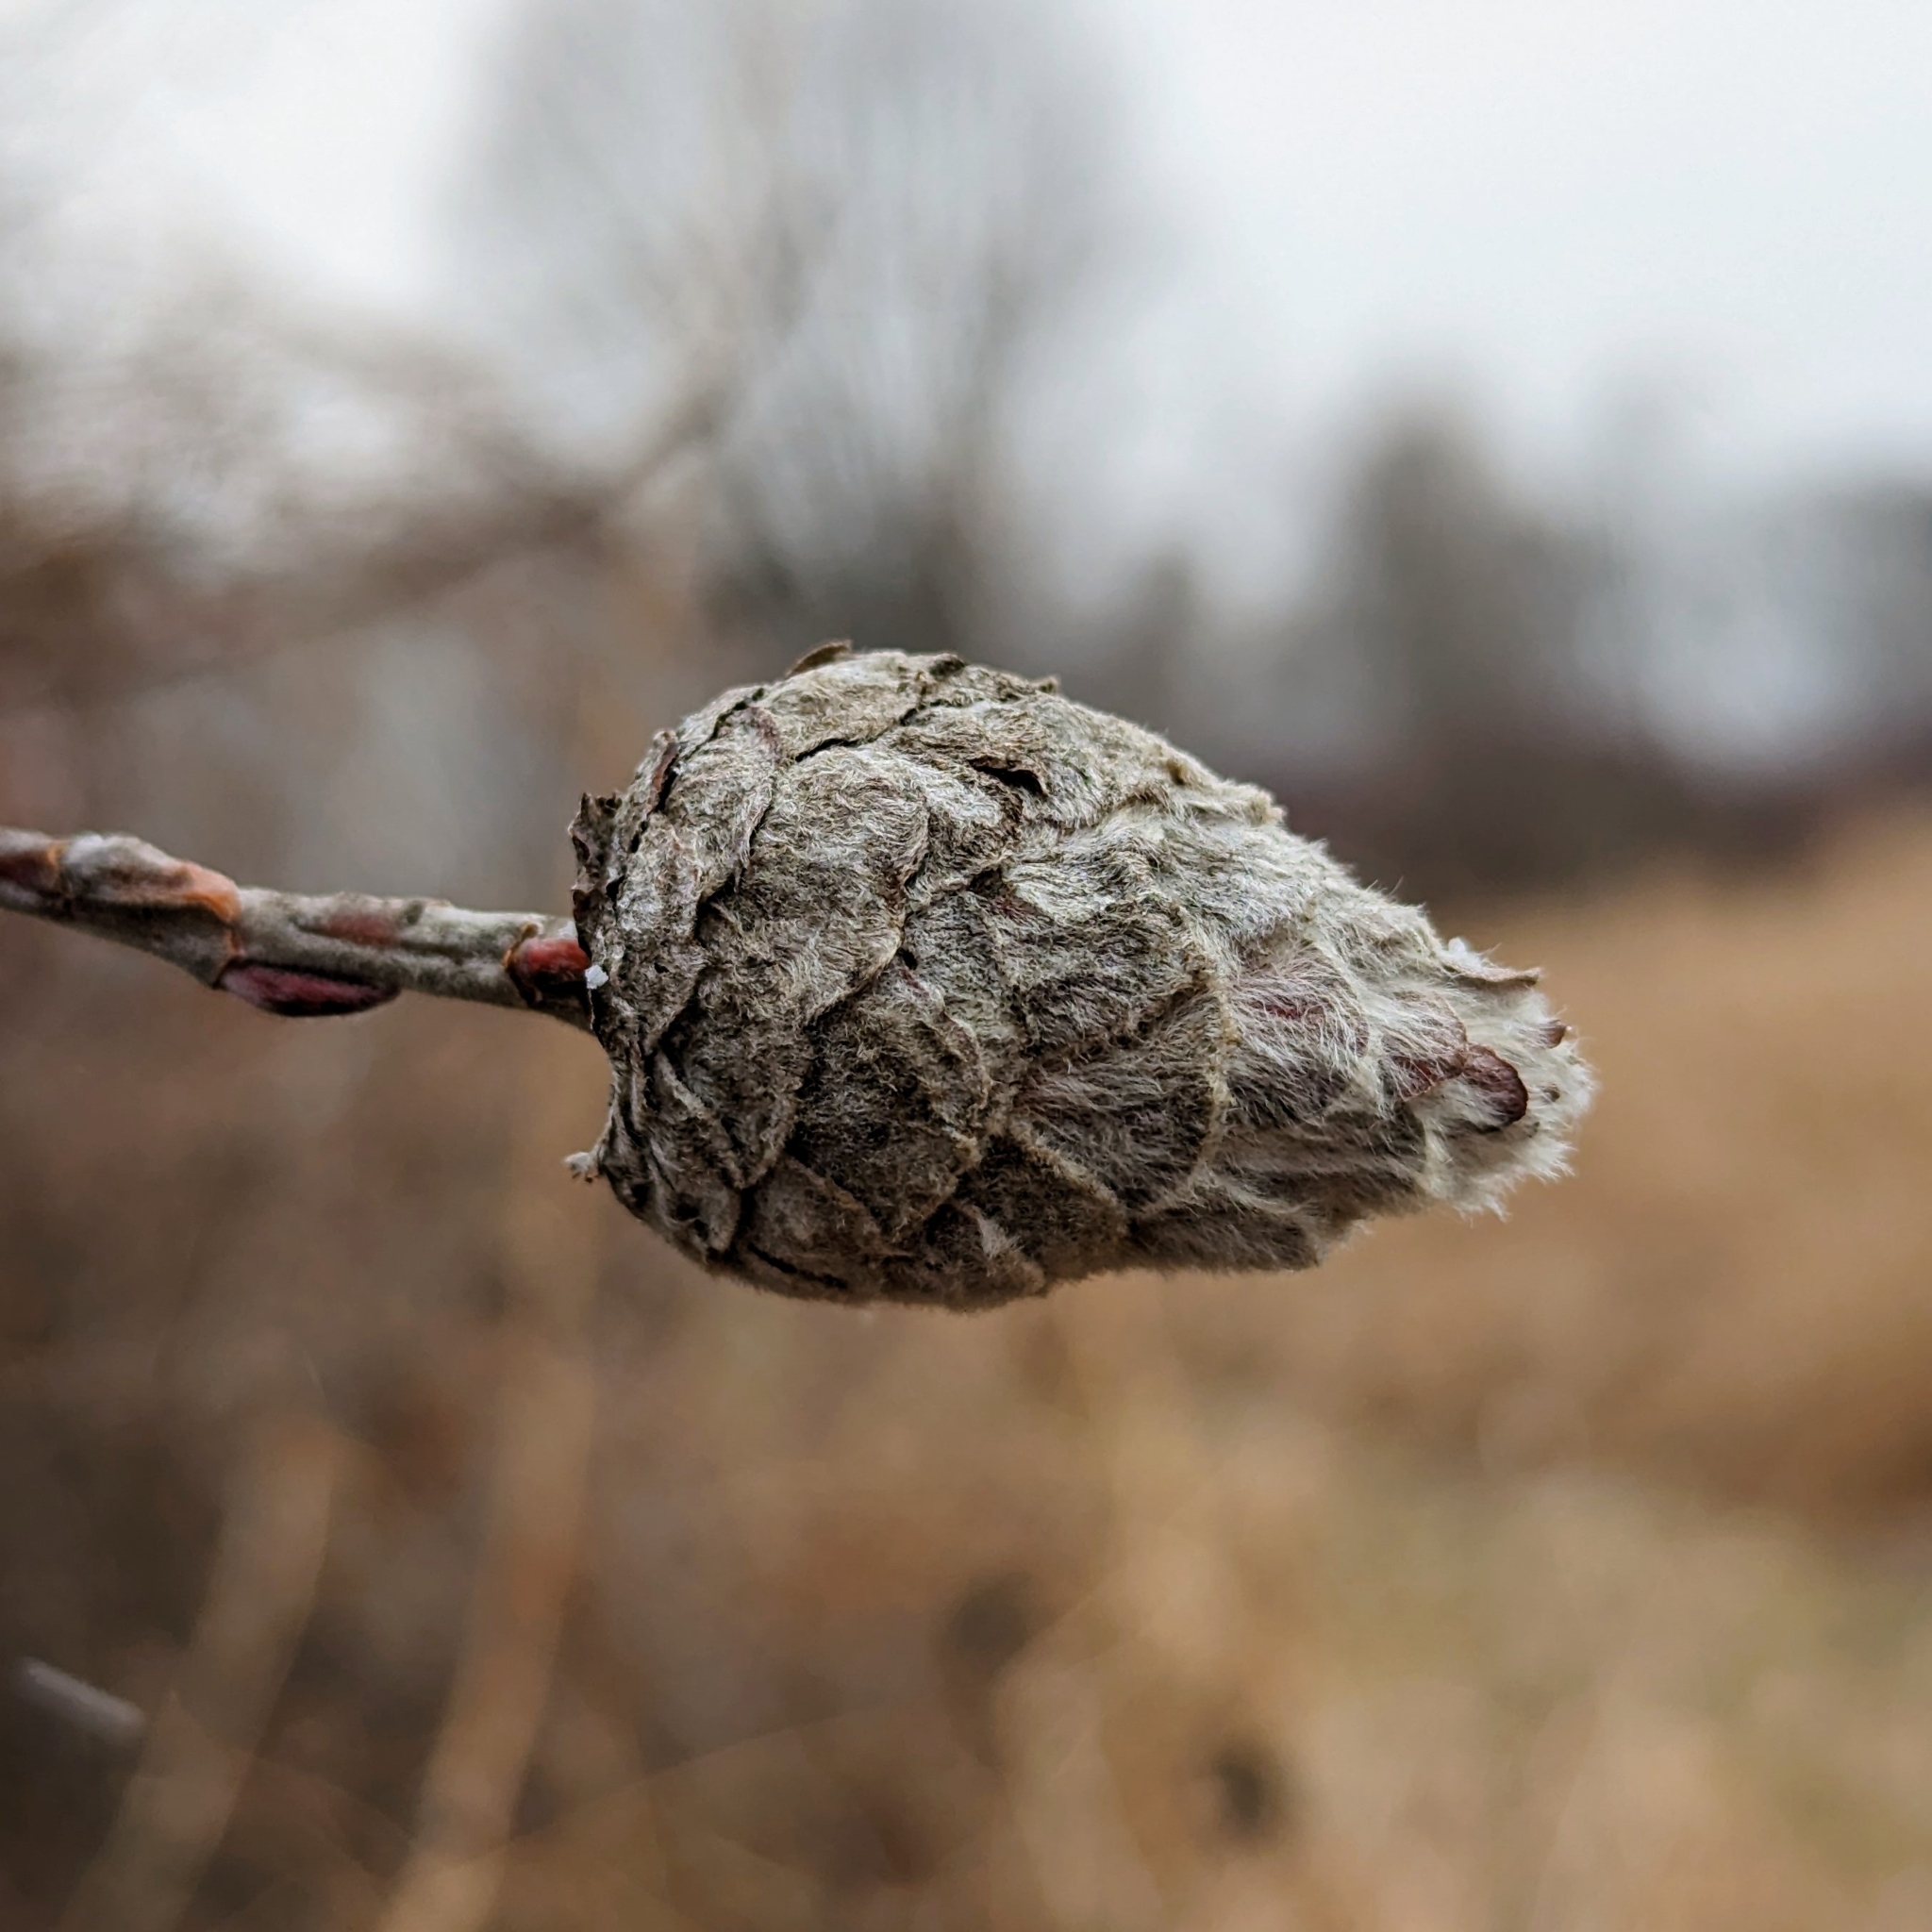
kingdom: Animalia
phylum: Arthropoda
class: Insecta
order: Diptera
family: Cecidomyiidae
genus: Rabdophaga
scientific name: Rabdophaga strobiloides
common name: Willow pinecone gall midge
